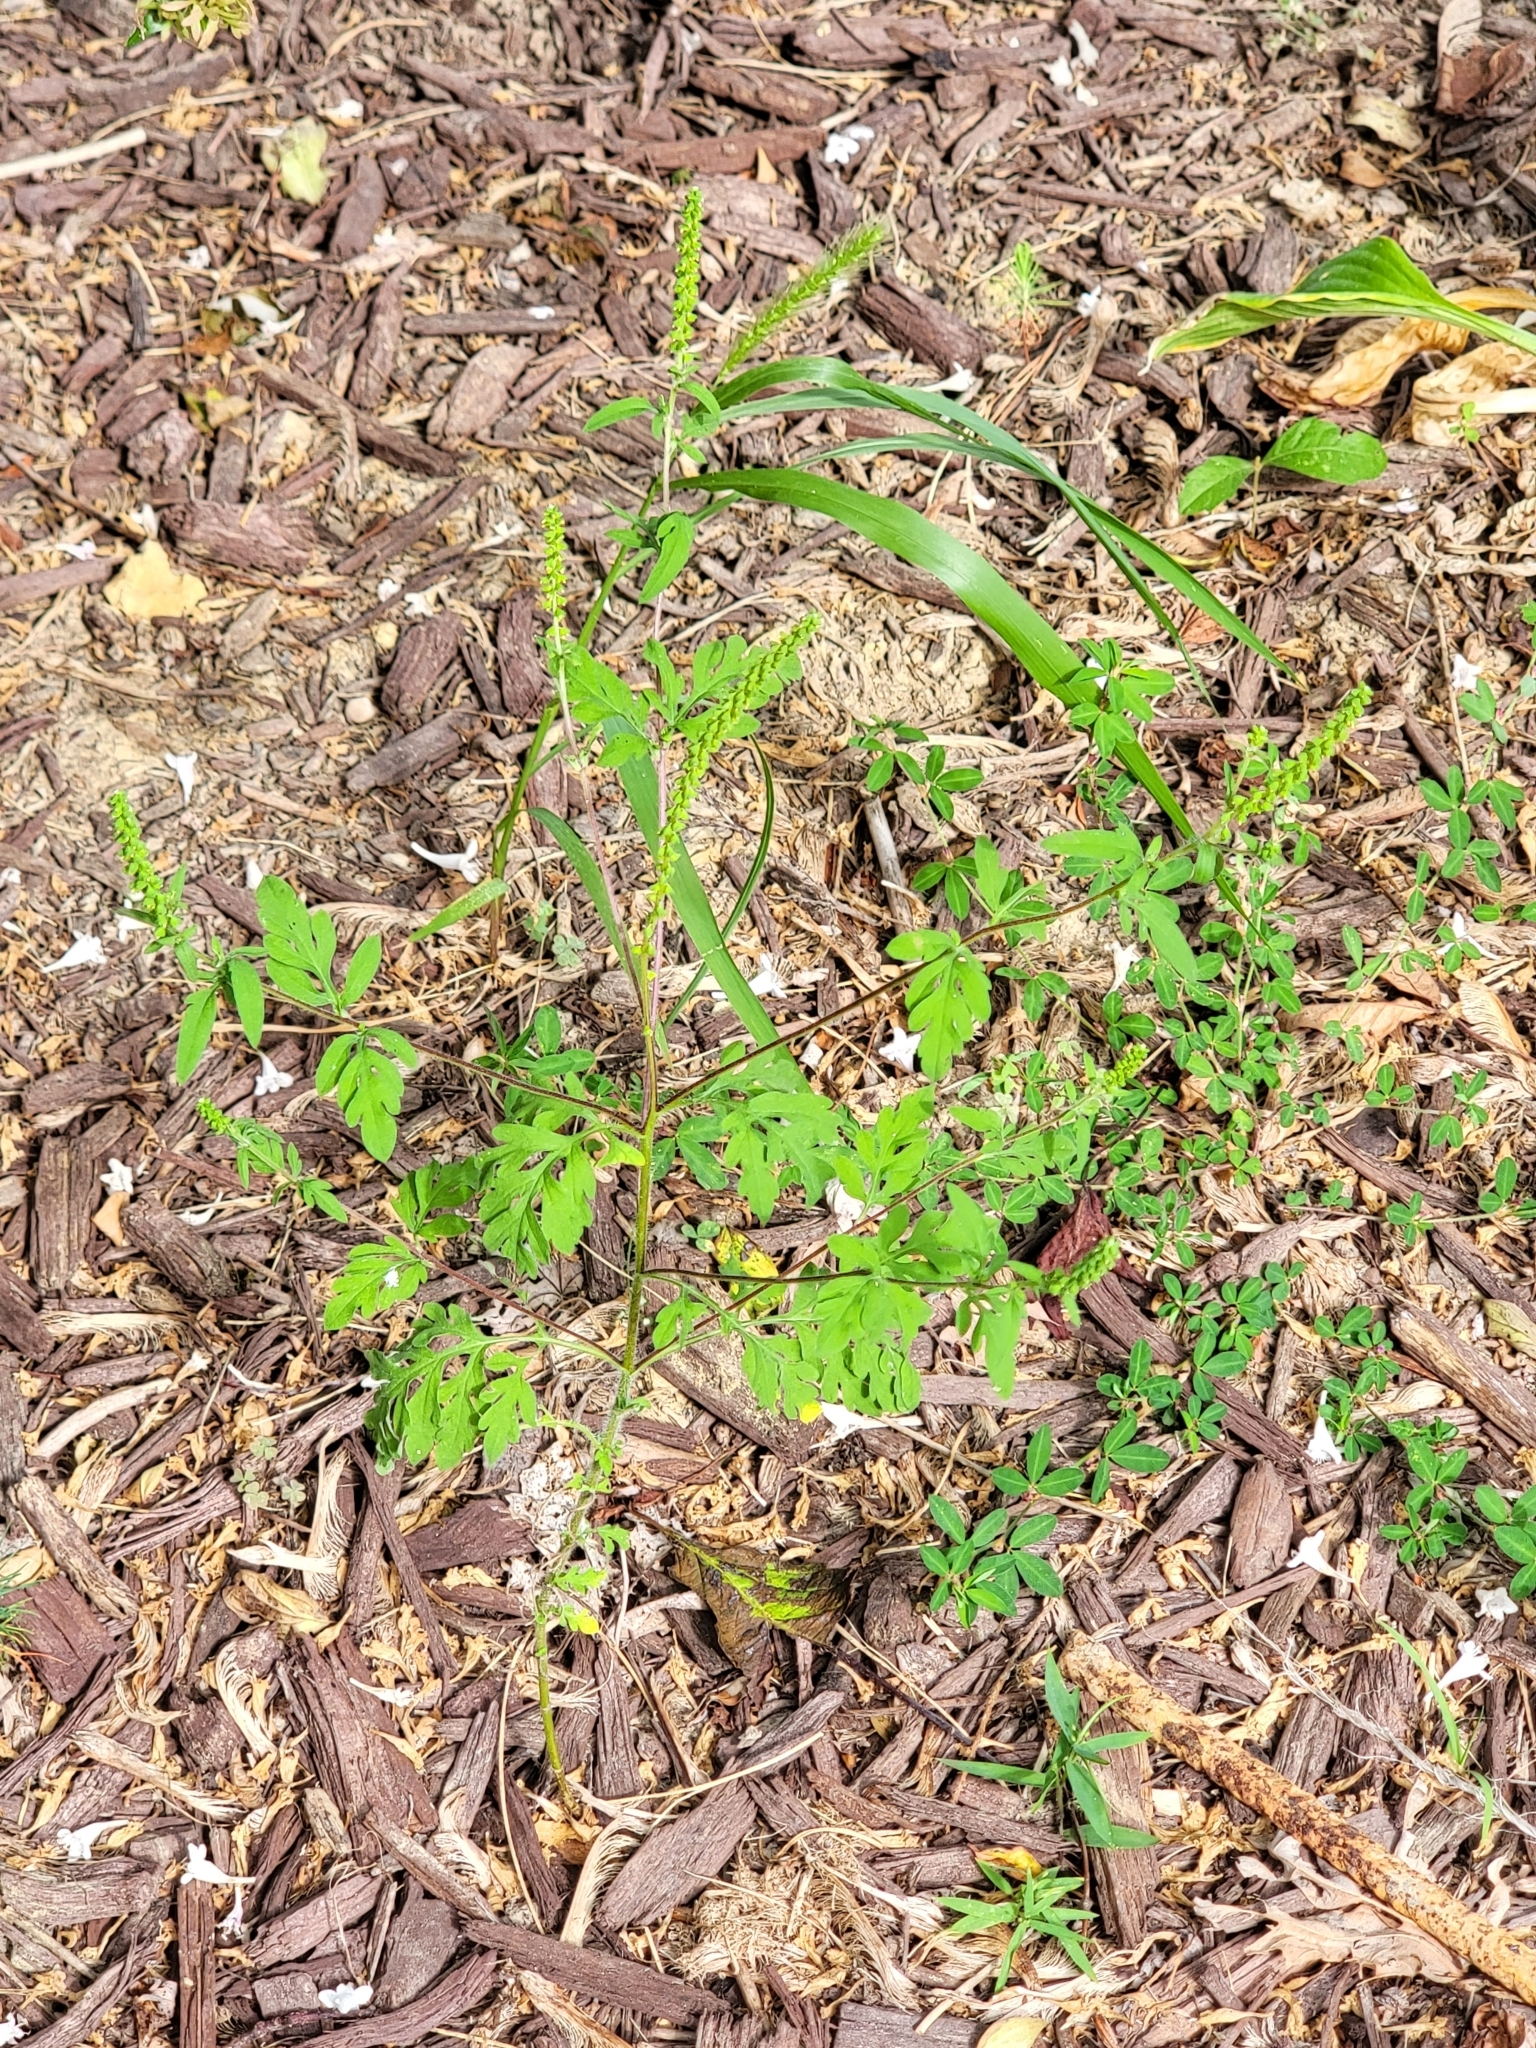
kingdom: Plantae
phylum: Tracheophyta
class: Magnoliopsida
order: Asterales
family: Asteraceae
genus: Ambrosia
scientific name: Ambrosia artemisiifolia
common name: Annual ragweed
